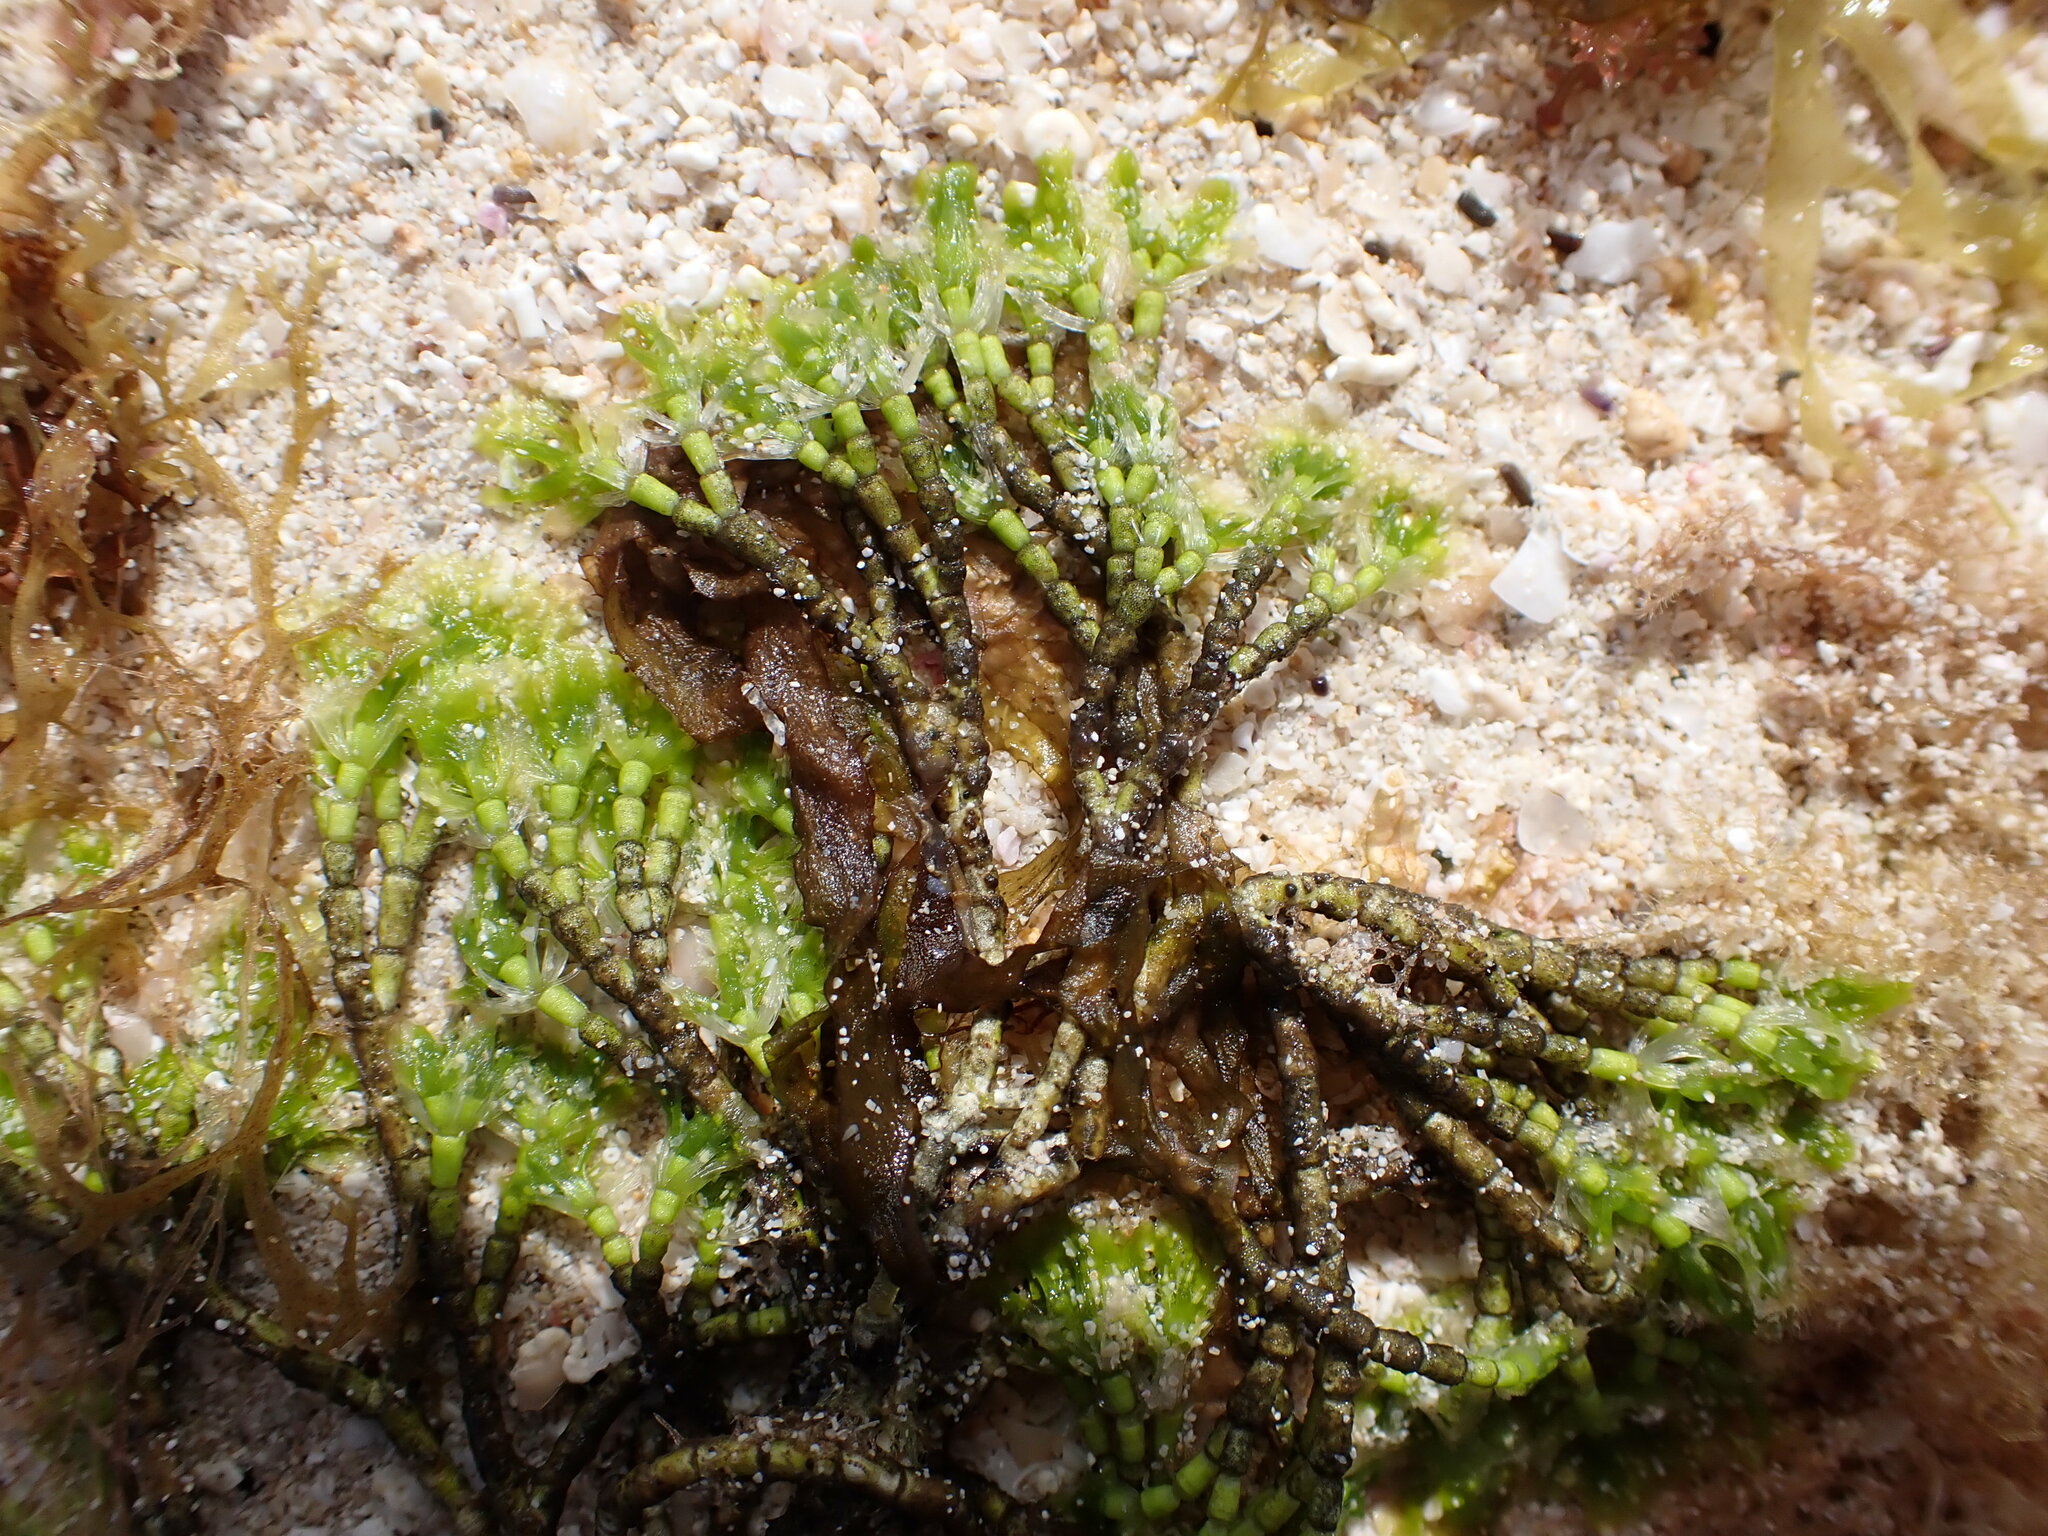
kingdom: Plantae
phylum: Chlorophyta
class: Ulvophyceae
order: Dasycladales
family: Dasycladaceae
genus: Cymopolia
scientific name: Cymopolia barbata
